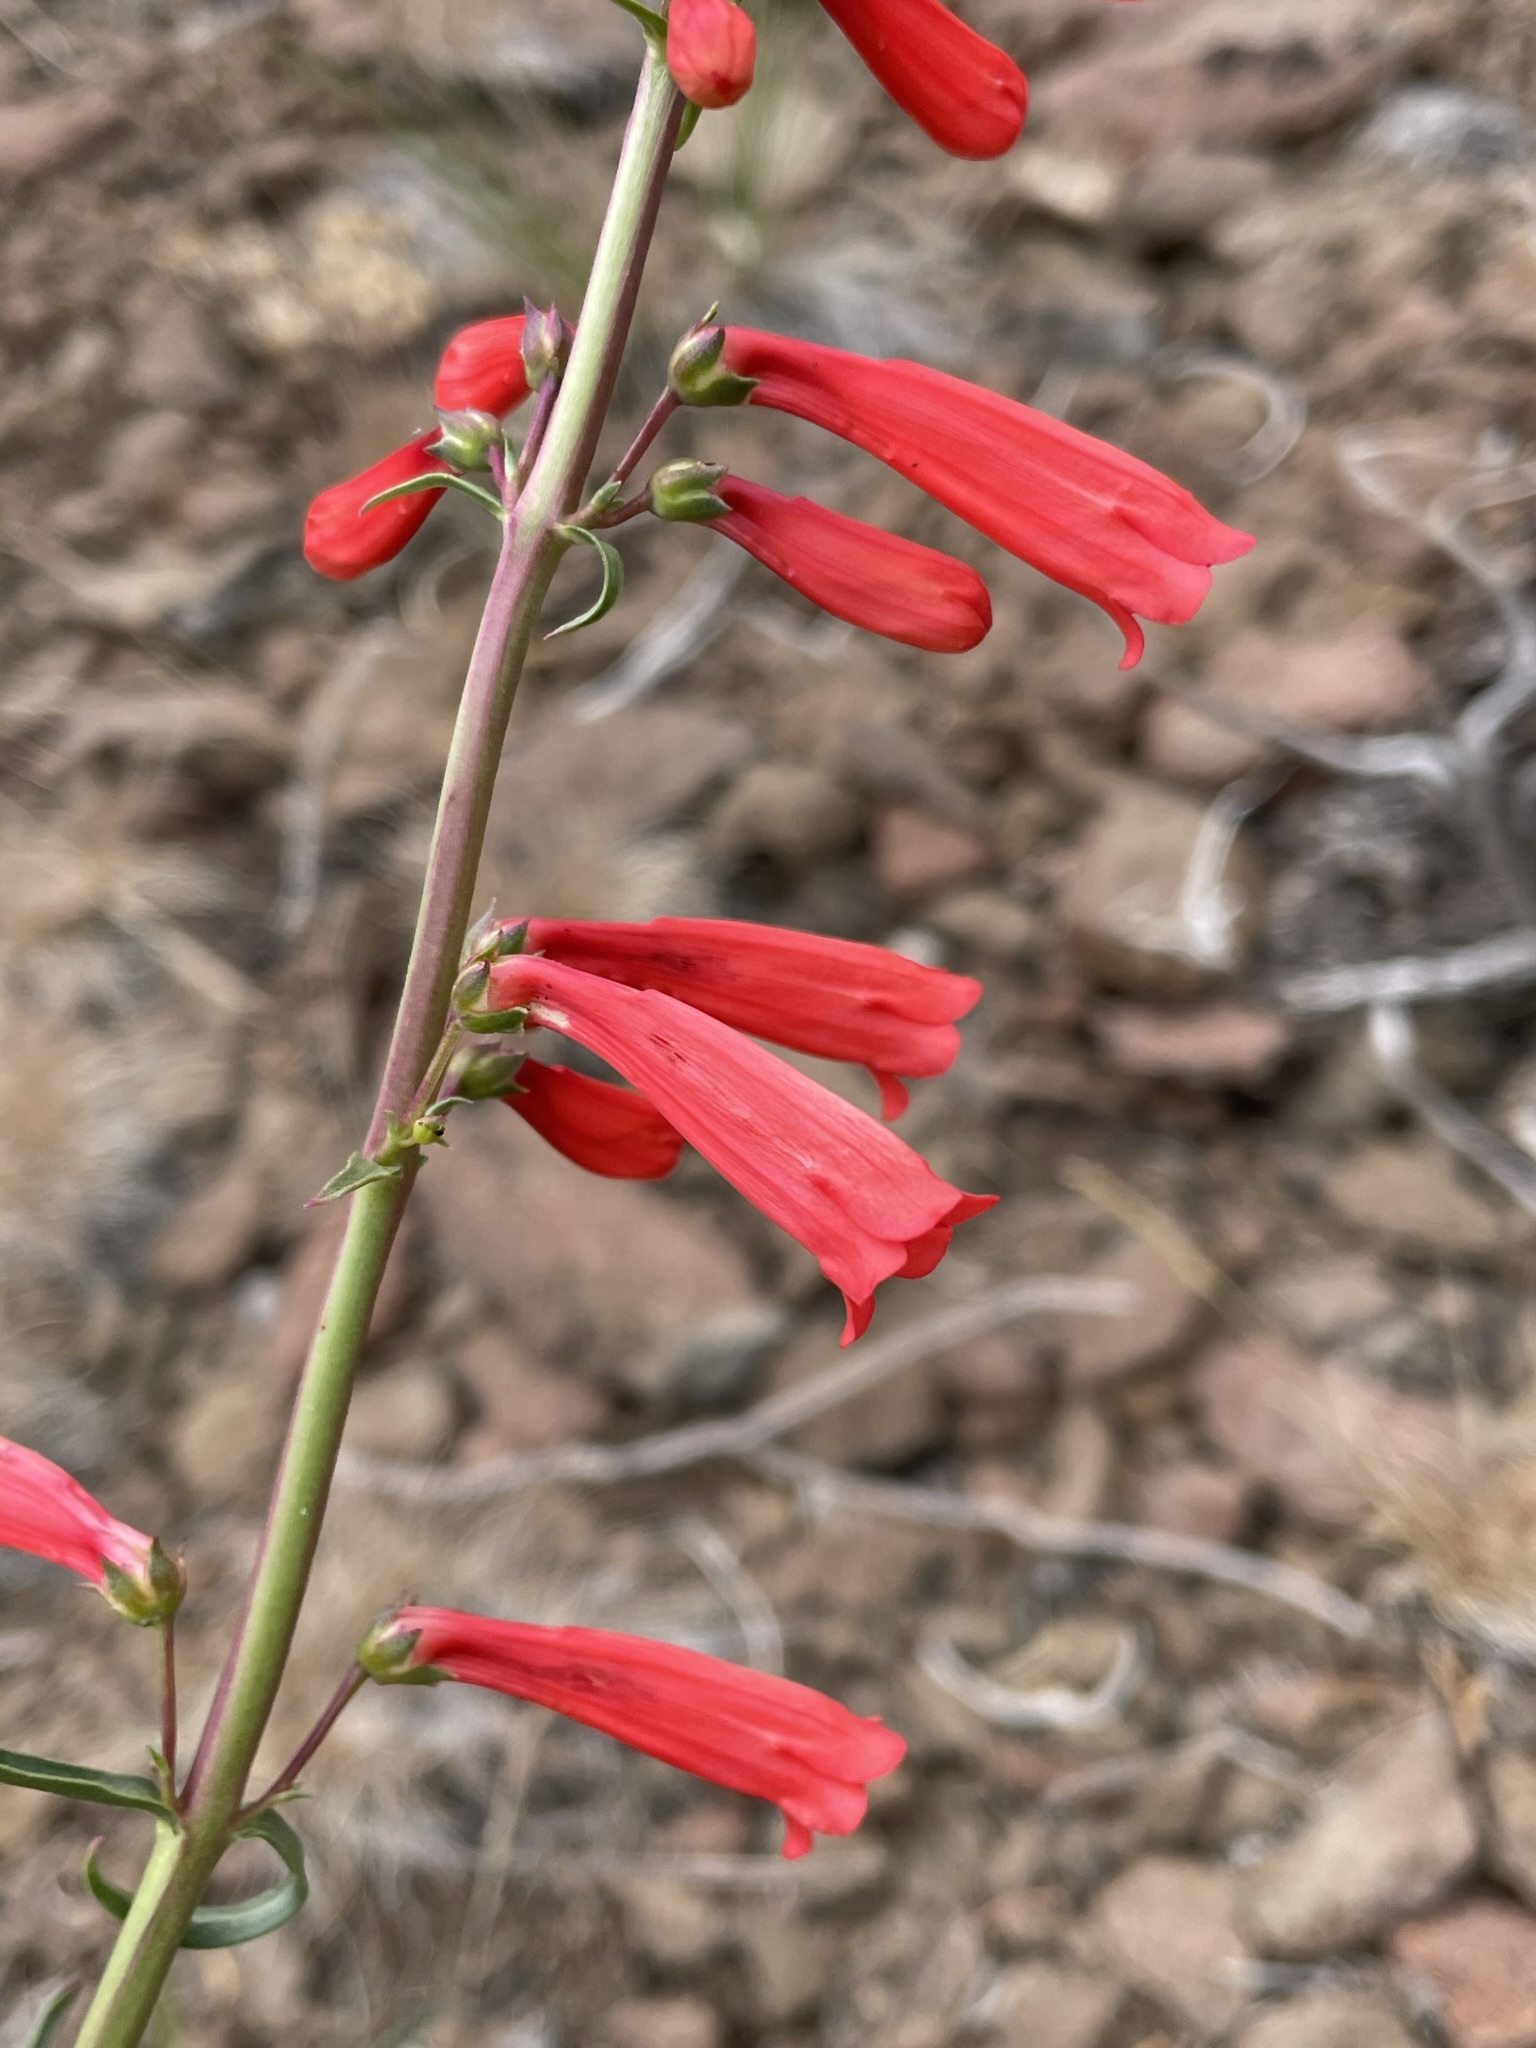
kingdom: Plantae
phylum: Tracheophyta
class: Magnoliopsida
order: Lamiales
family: Plantaginaceae
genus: Penstemon
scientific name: Penstemon eatonii
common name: Eaton's penstemon
